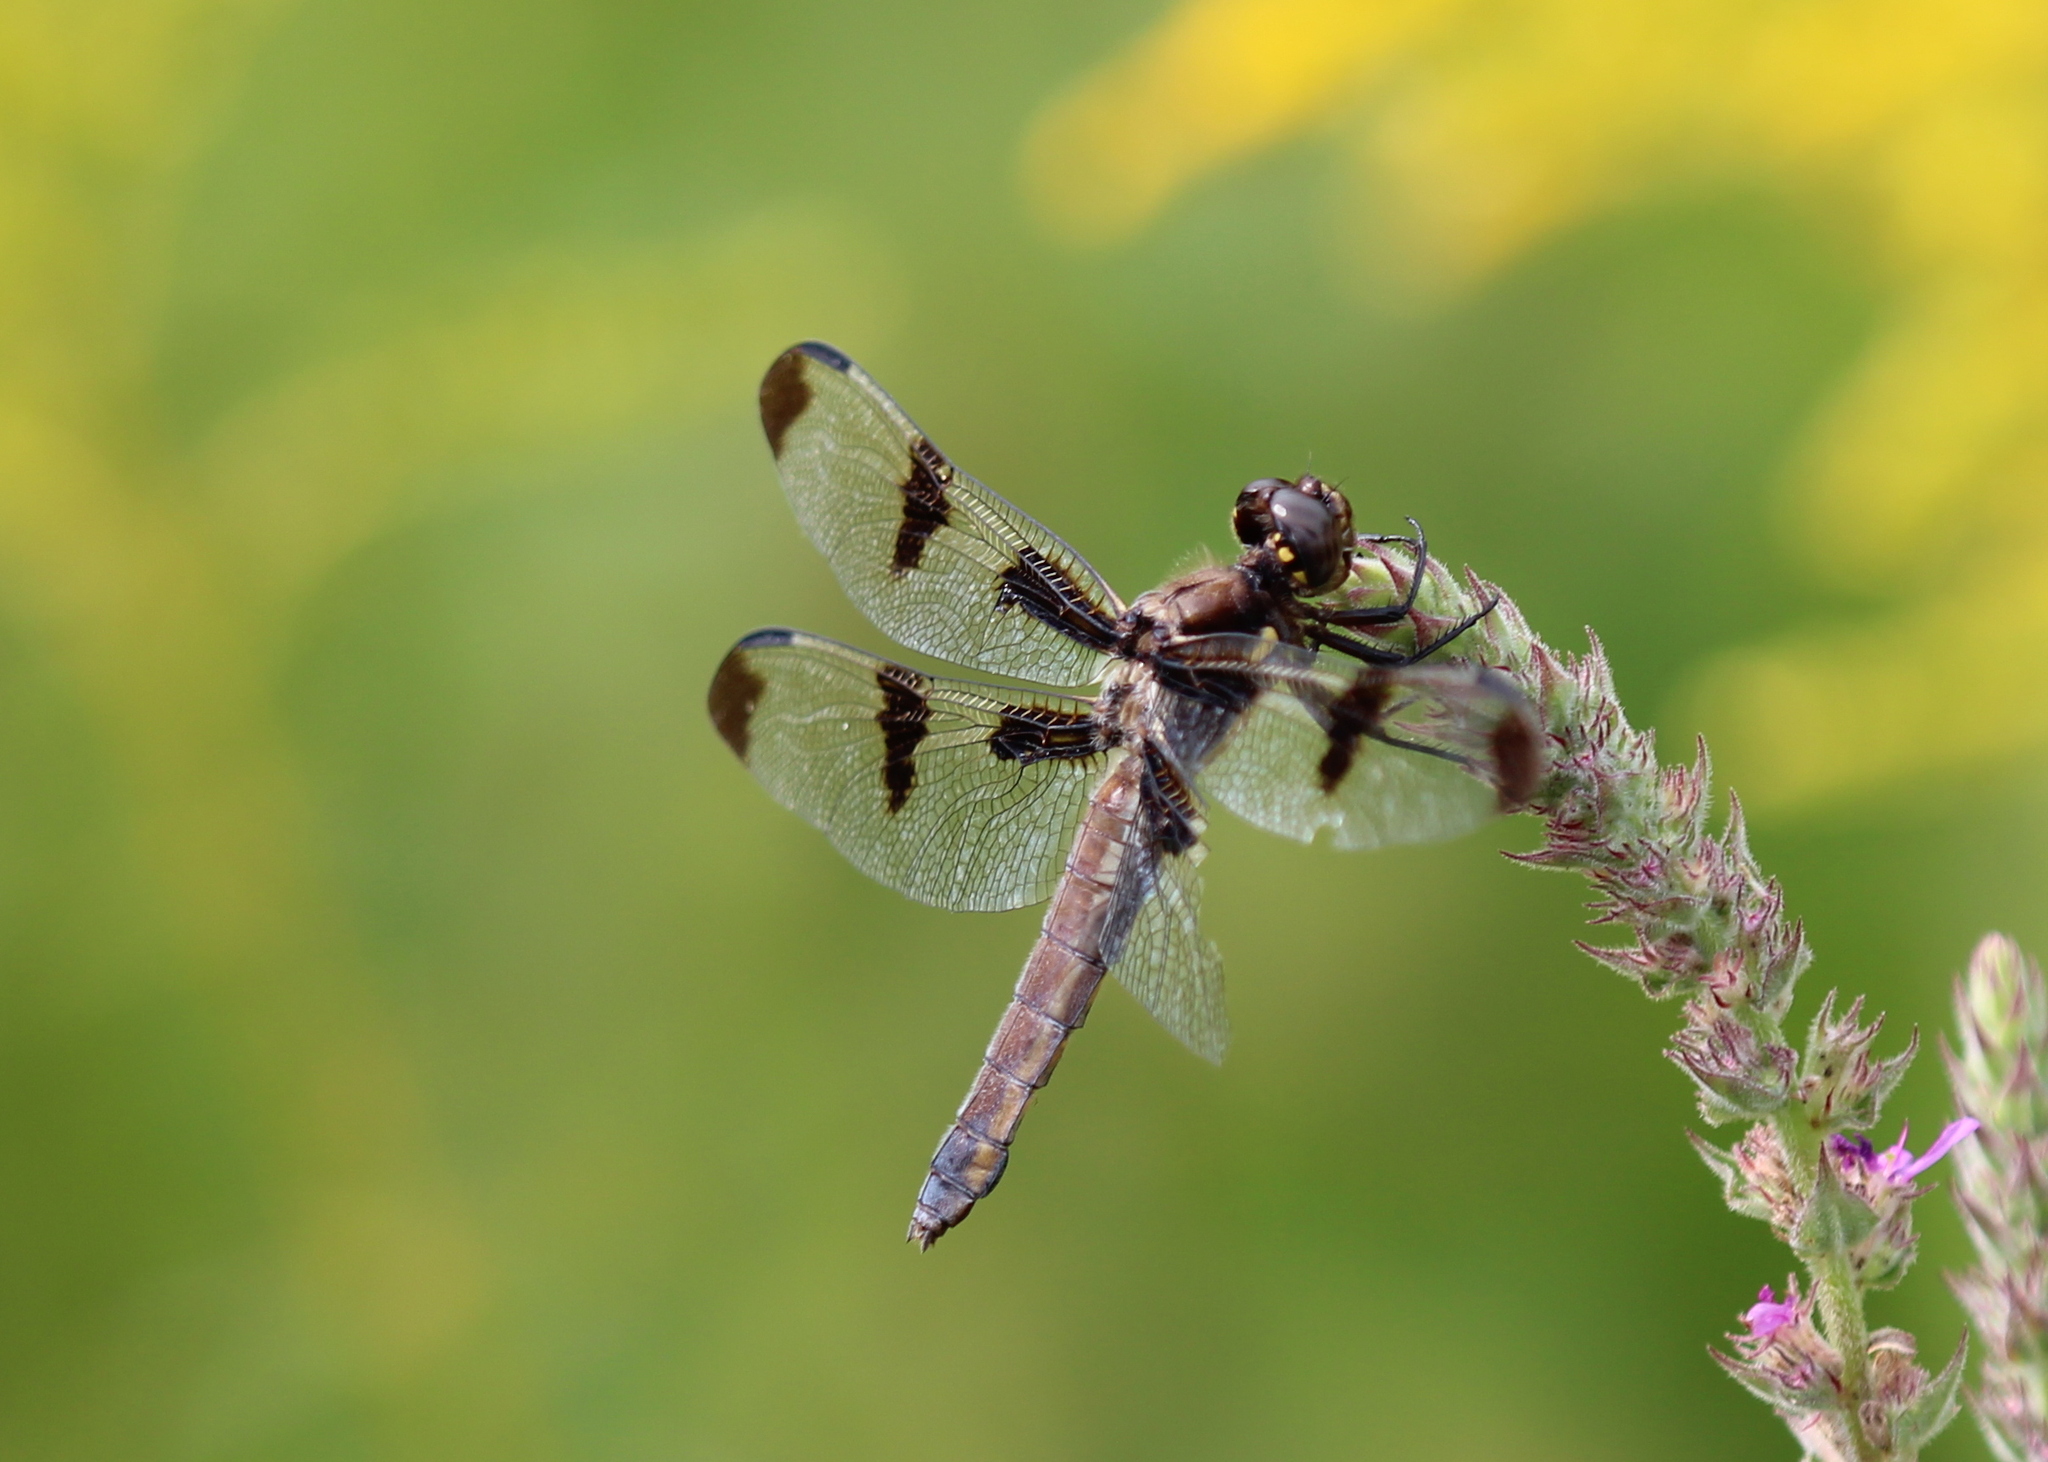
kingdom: Animalia
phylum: Arthropoda
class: Insecta
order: Odonata
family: Libellulidae
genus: Libellula
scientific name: Libellula pulchella
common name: Twelve-spotted skimmer
